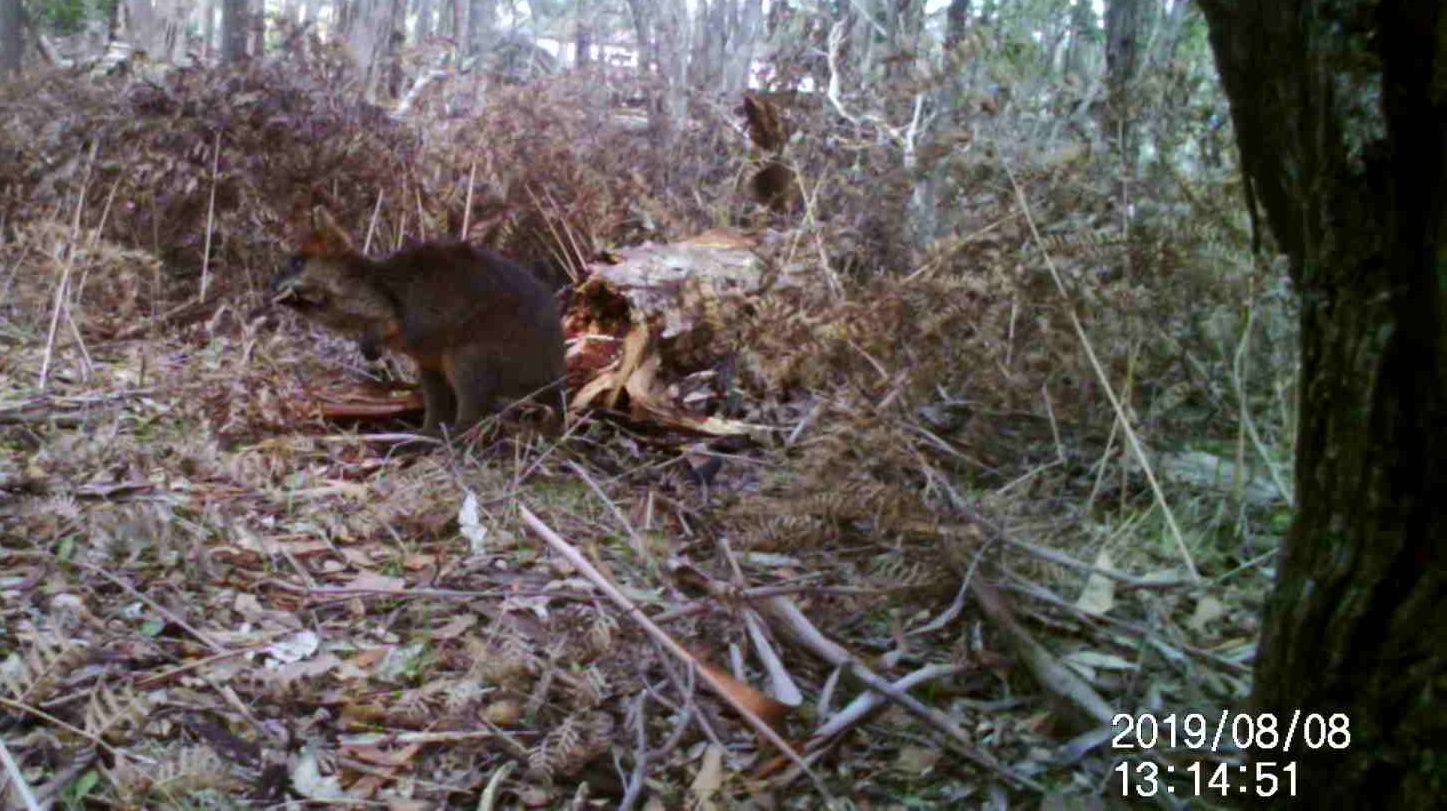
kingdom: Animalia
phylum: Chordata
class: Mammalia
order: Diprotodontia
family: Macropodidae
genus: Wallabia
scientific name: Wallabia bicolor
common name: Swamp wallaby
